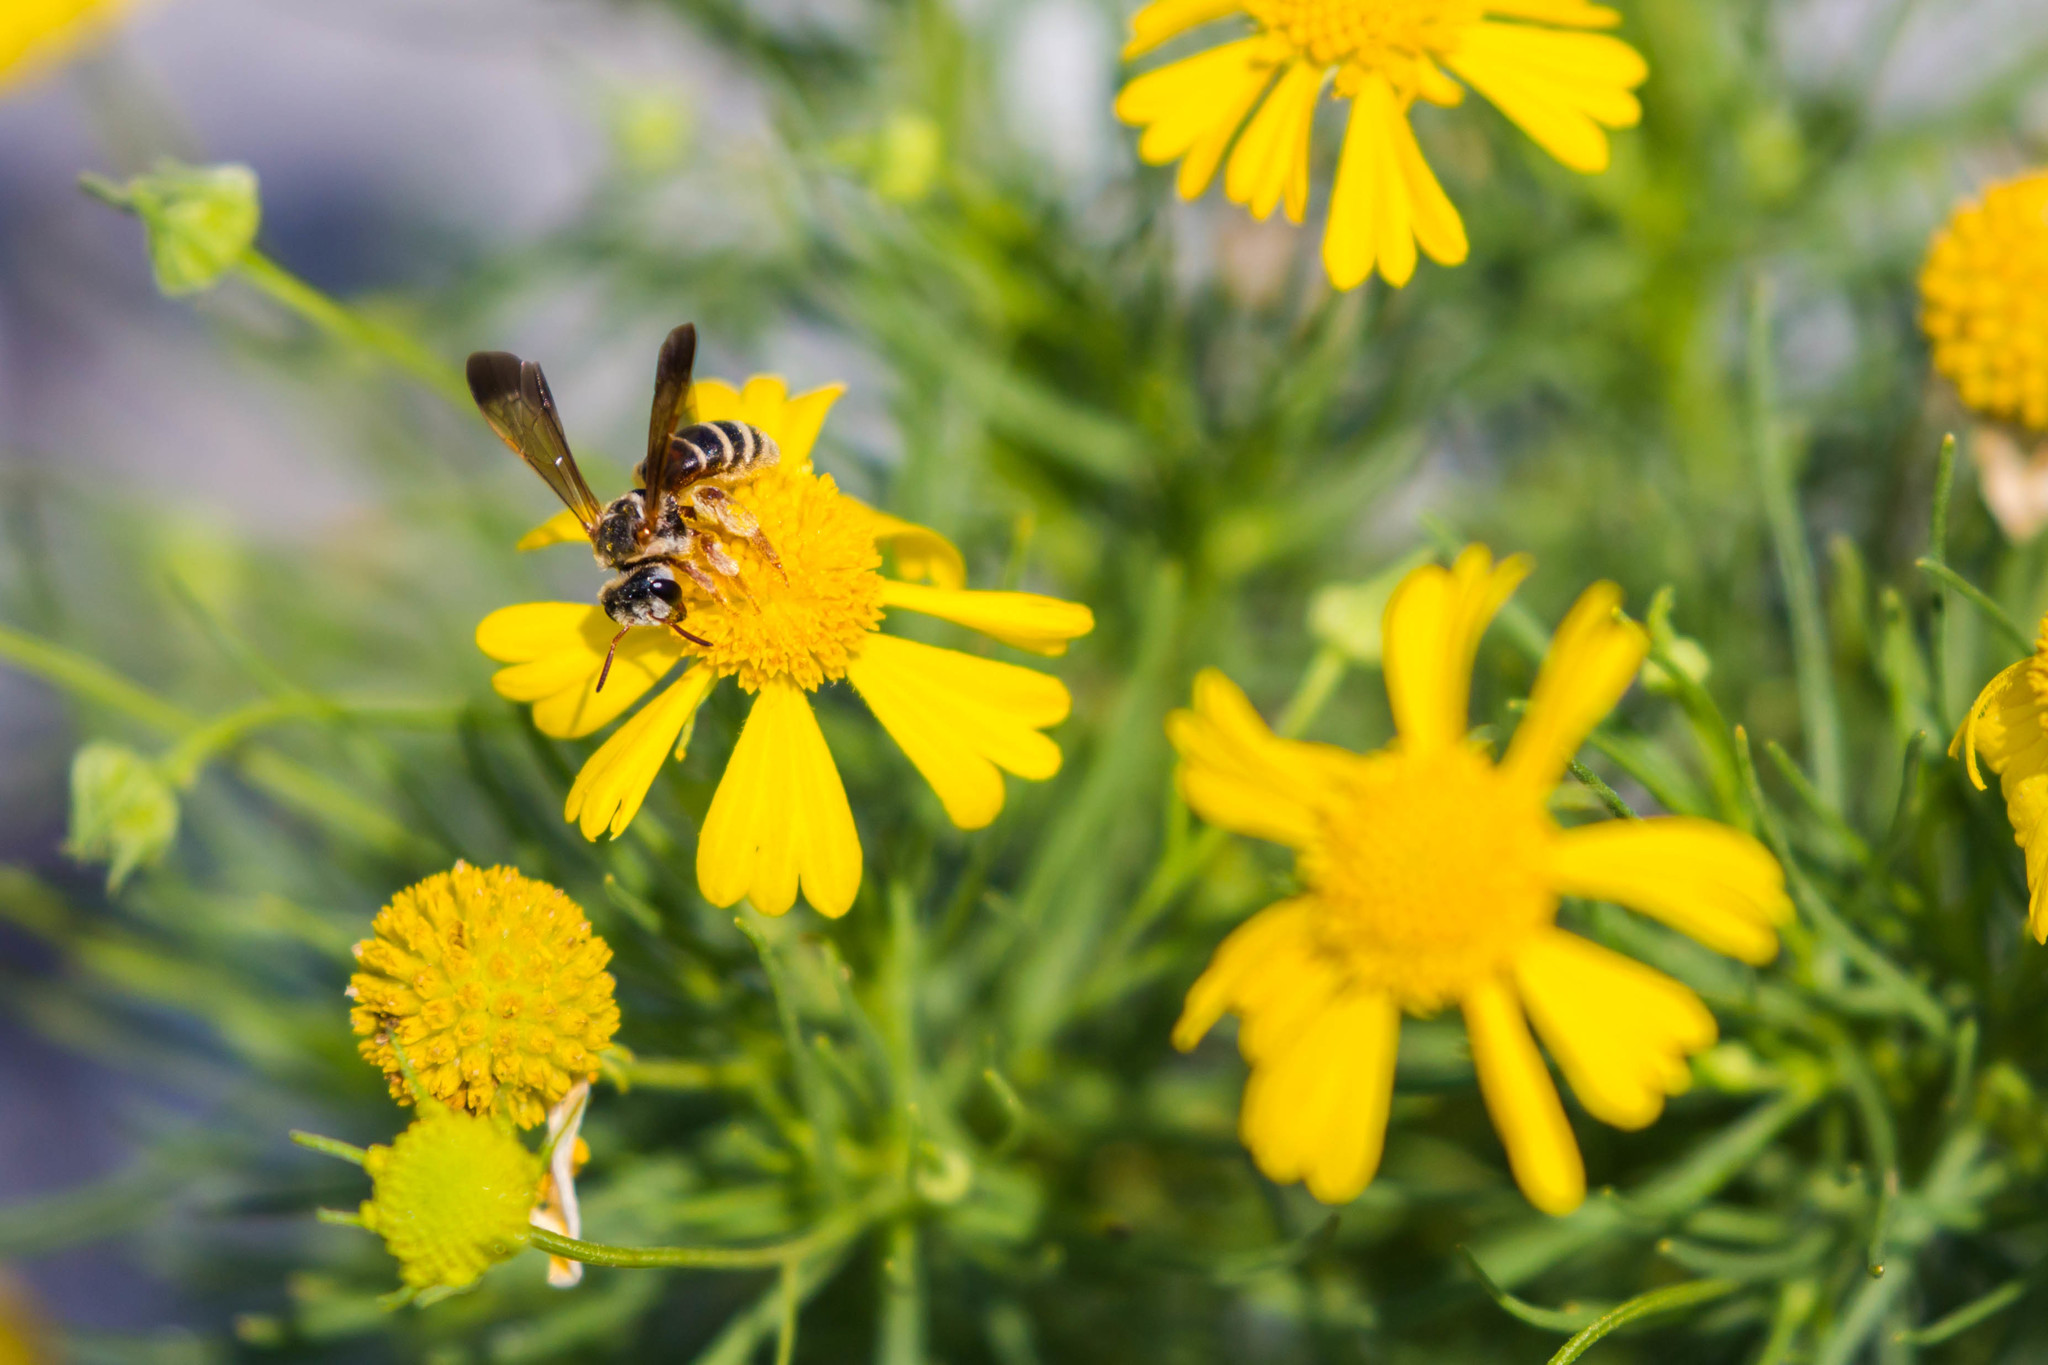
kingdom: Animalia
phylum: Arthropoda
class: Insecta
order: Hymenoptera
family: Halictidae
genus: Dieunomia
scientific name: Dieunomia nevadensis
